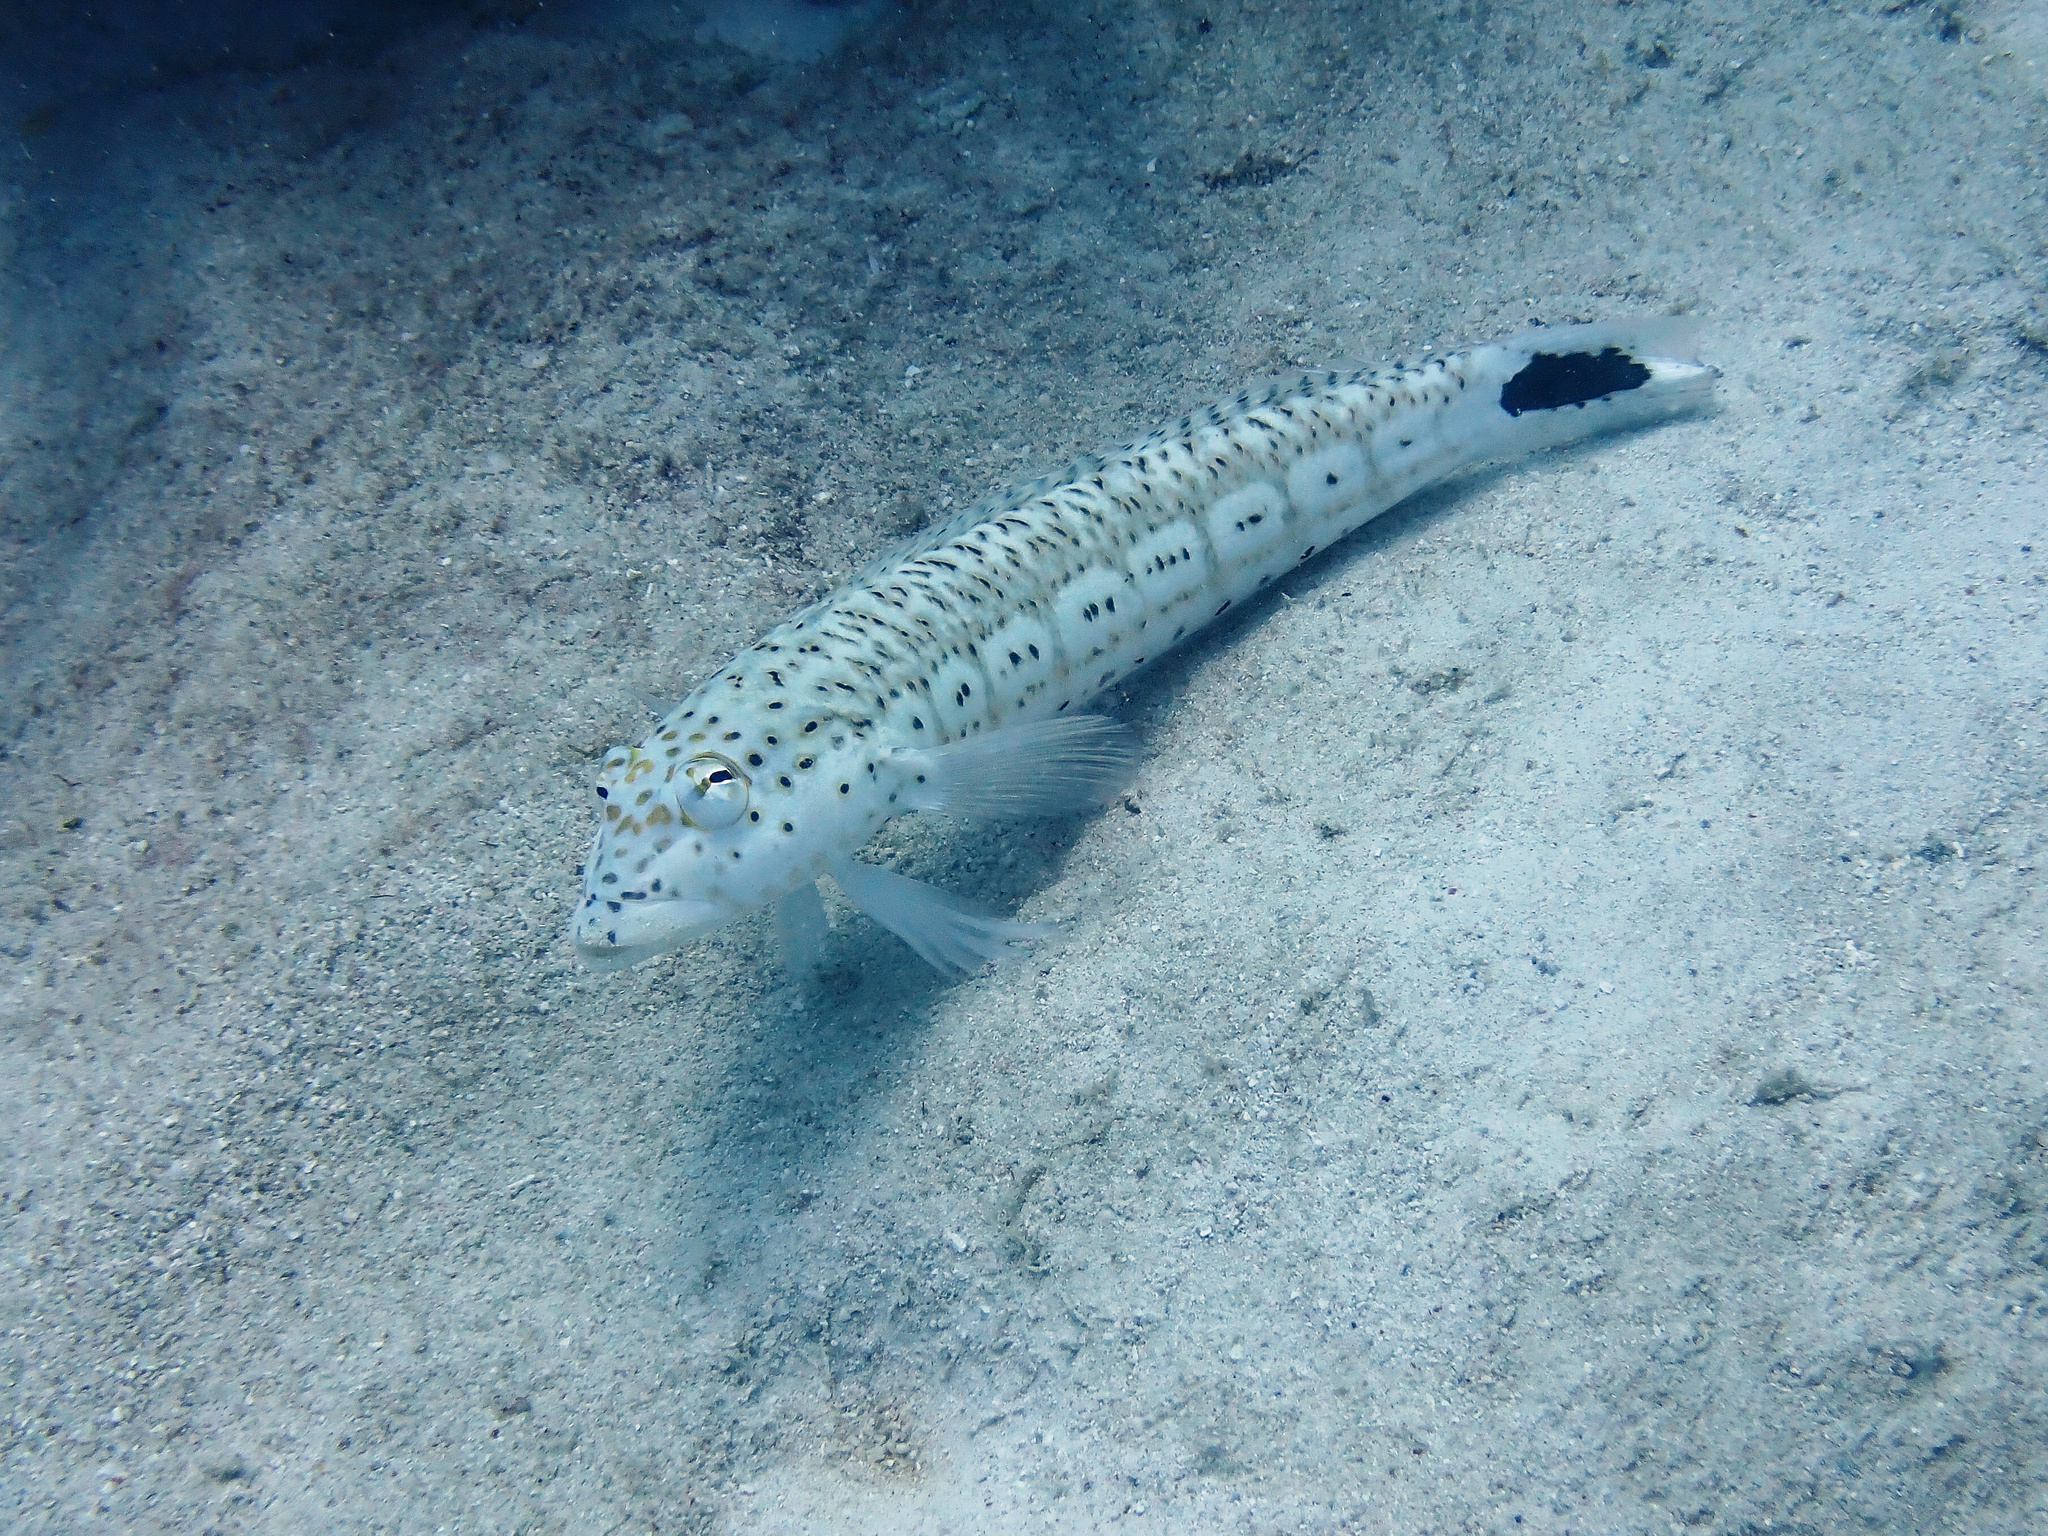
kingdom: Animalia
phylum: Chordata
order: Perciformes
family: Pinguipedidae
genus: Parapercis
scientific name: Parapercis queenslandica
